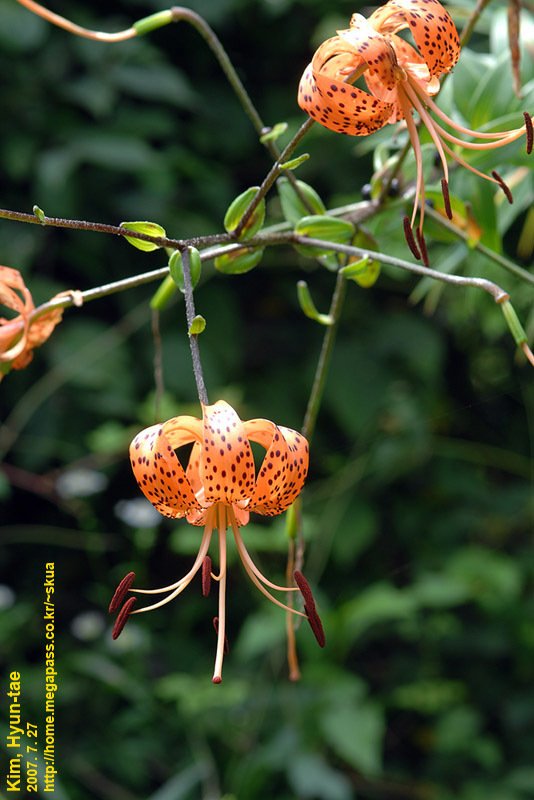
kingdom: Plantae
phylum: Tracheophyta
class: Liliopsida
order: Liliales
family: Liliaceae
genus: Lilium
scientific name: Lilium lancifolium
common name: Tiger lily
